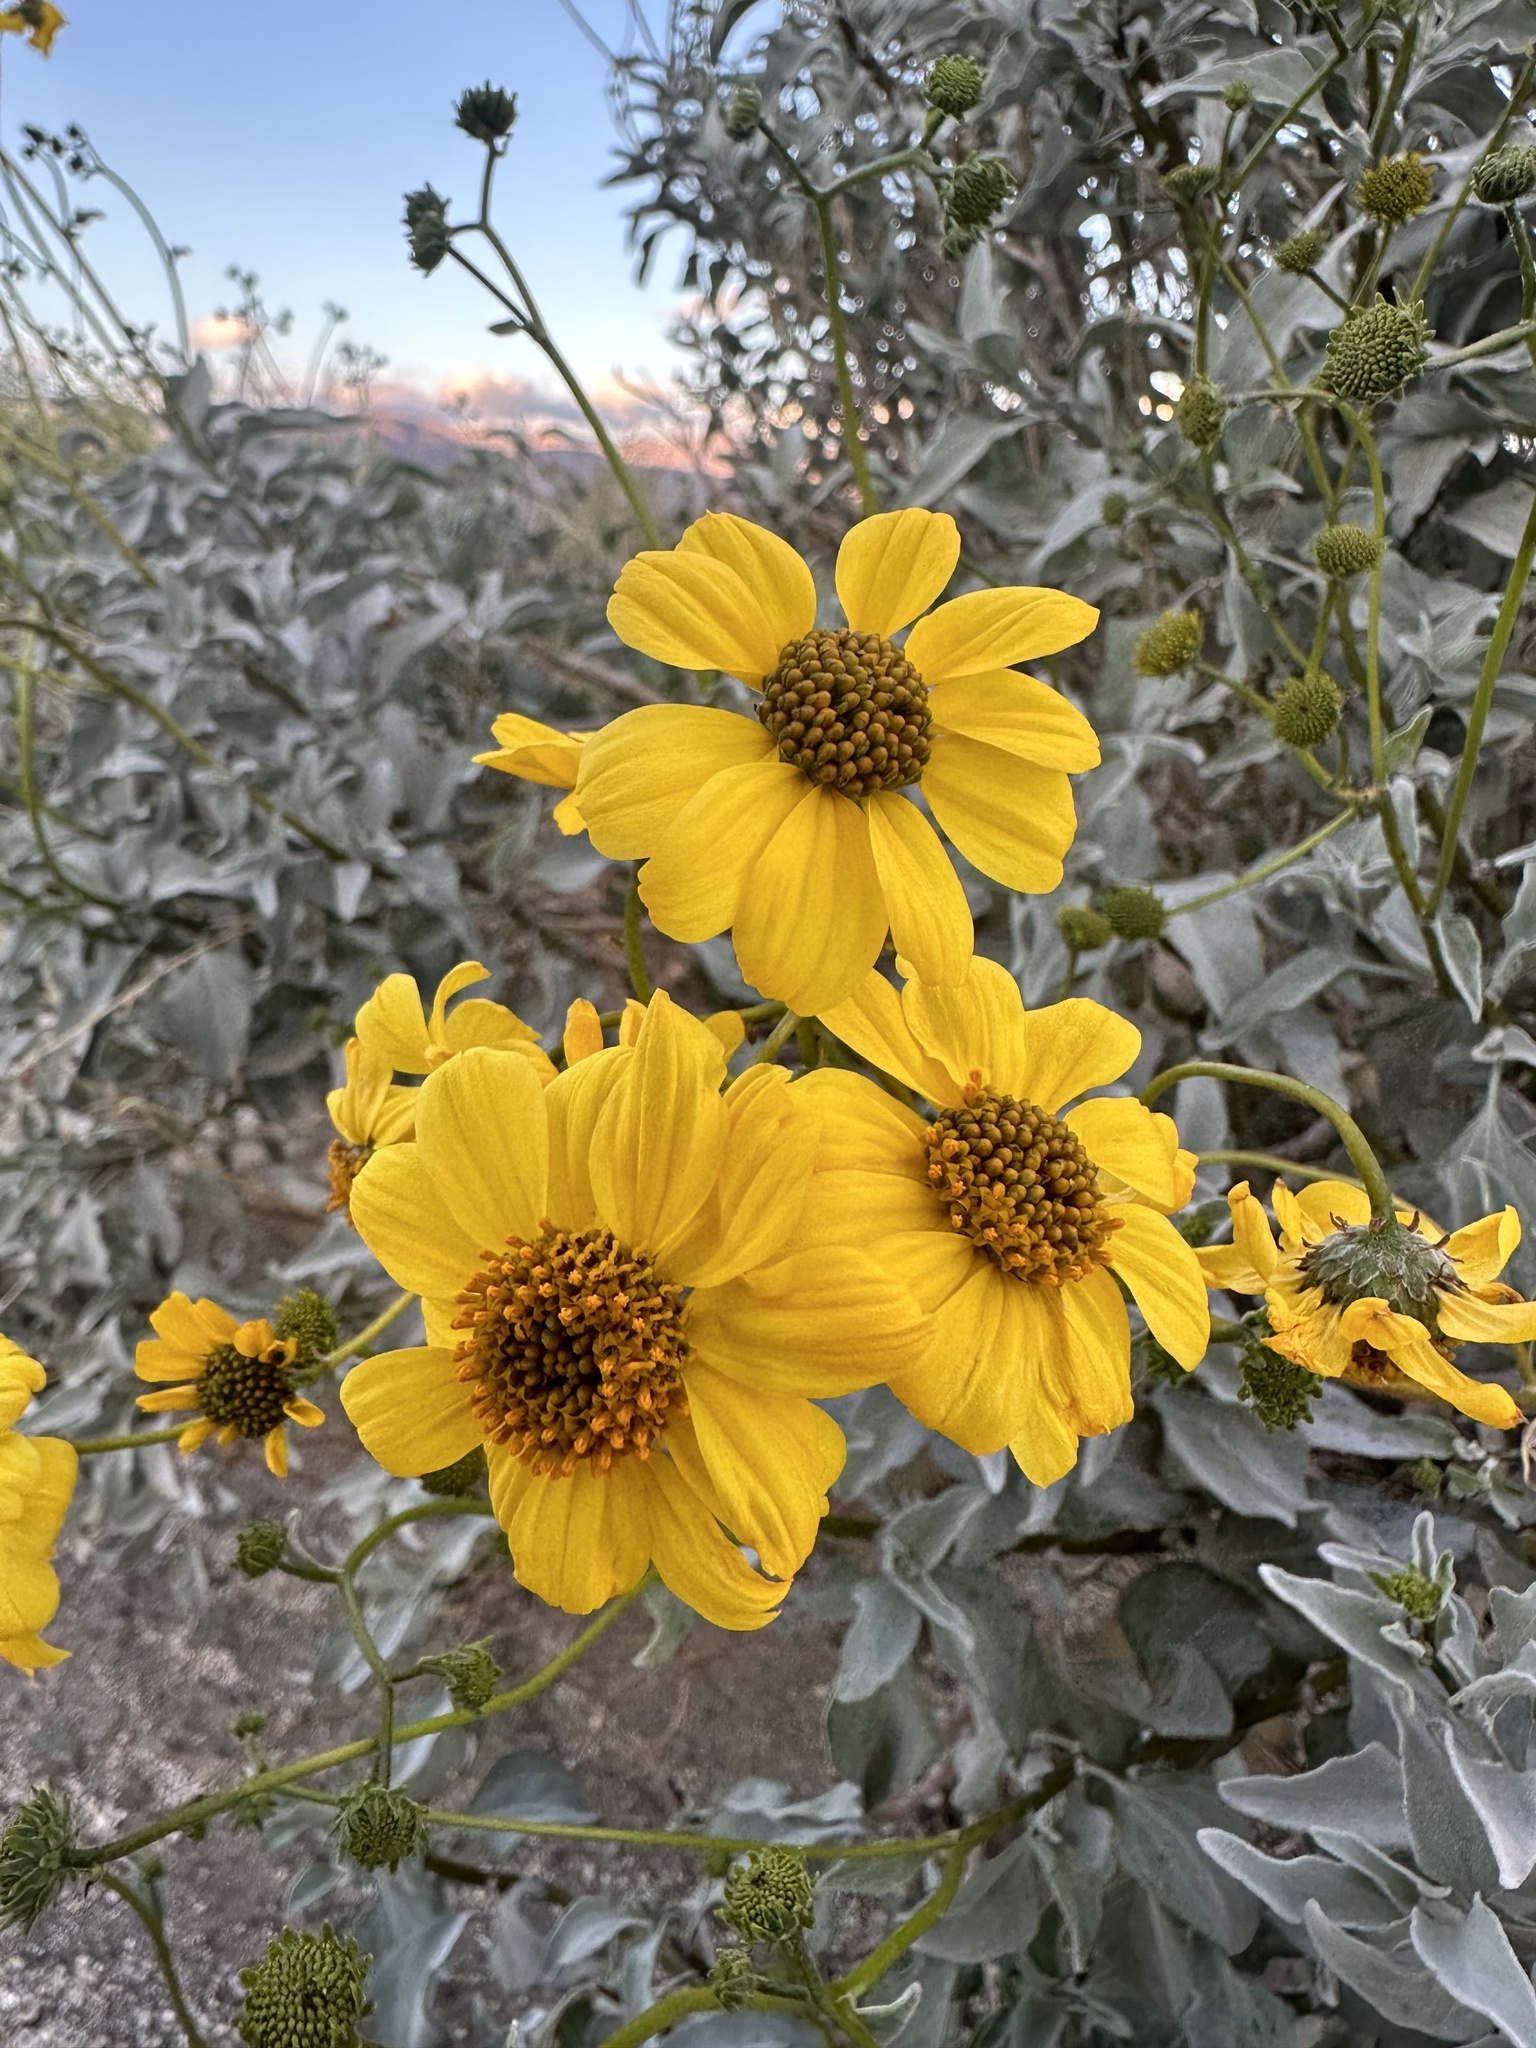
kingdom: Plantae
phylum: Tracheophyta
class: Magnoliopsida
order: Asterales
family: Asteraceae
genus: Encelia
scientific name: Encelia farinosa
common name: Brittlebush
